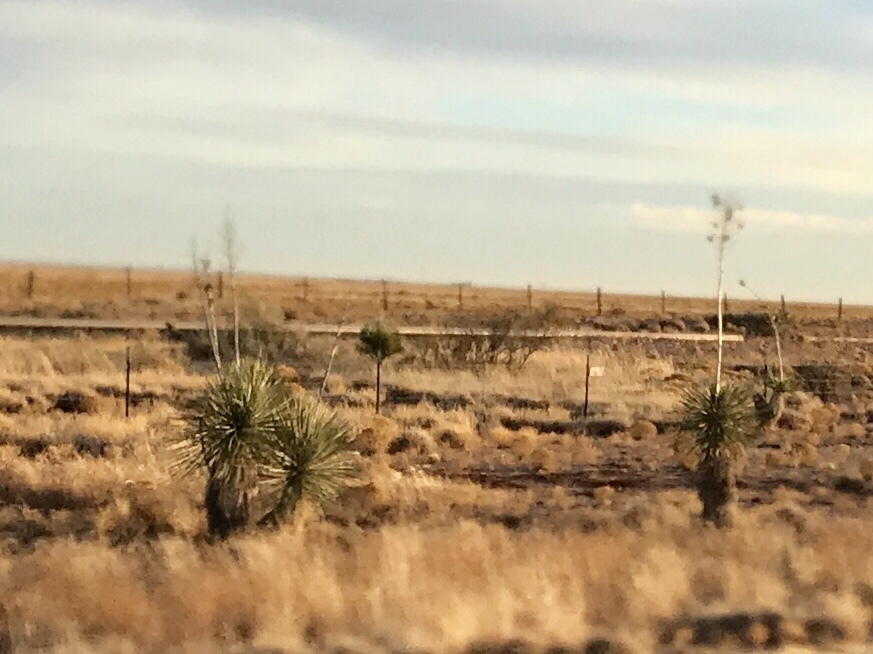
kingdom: Plantae
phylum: Tracheophyta
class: Liliopsida
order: Asparagales
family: Asparagaceae
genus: Yucca
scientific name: Yucca elata
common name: Palmella
